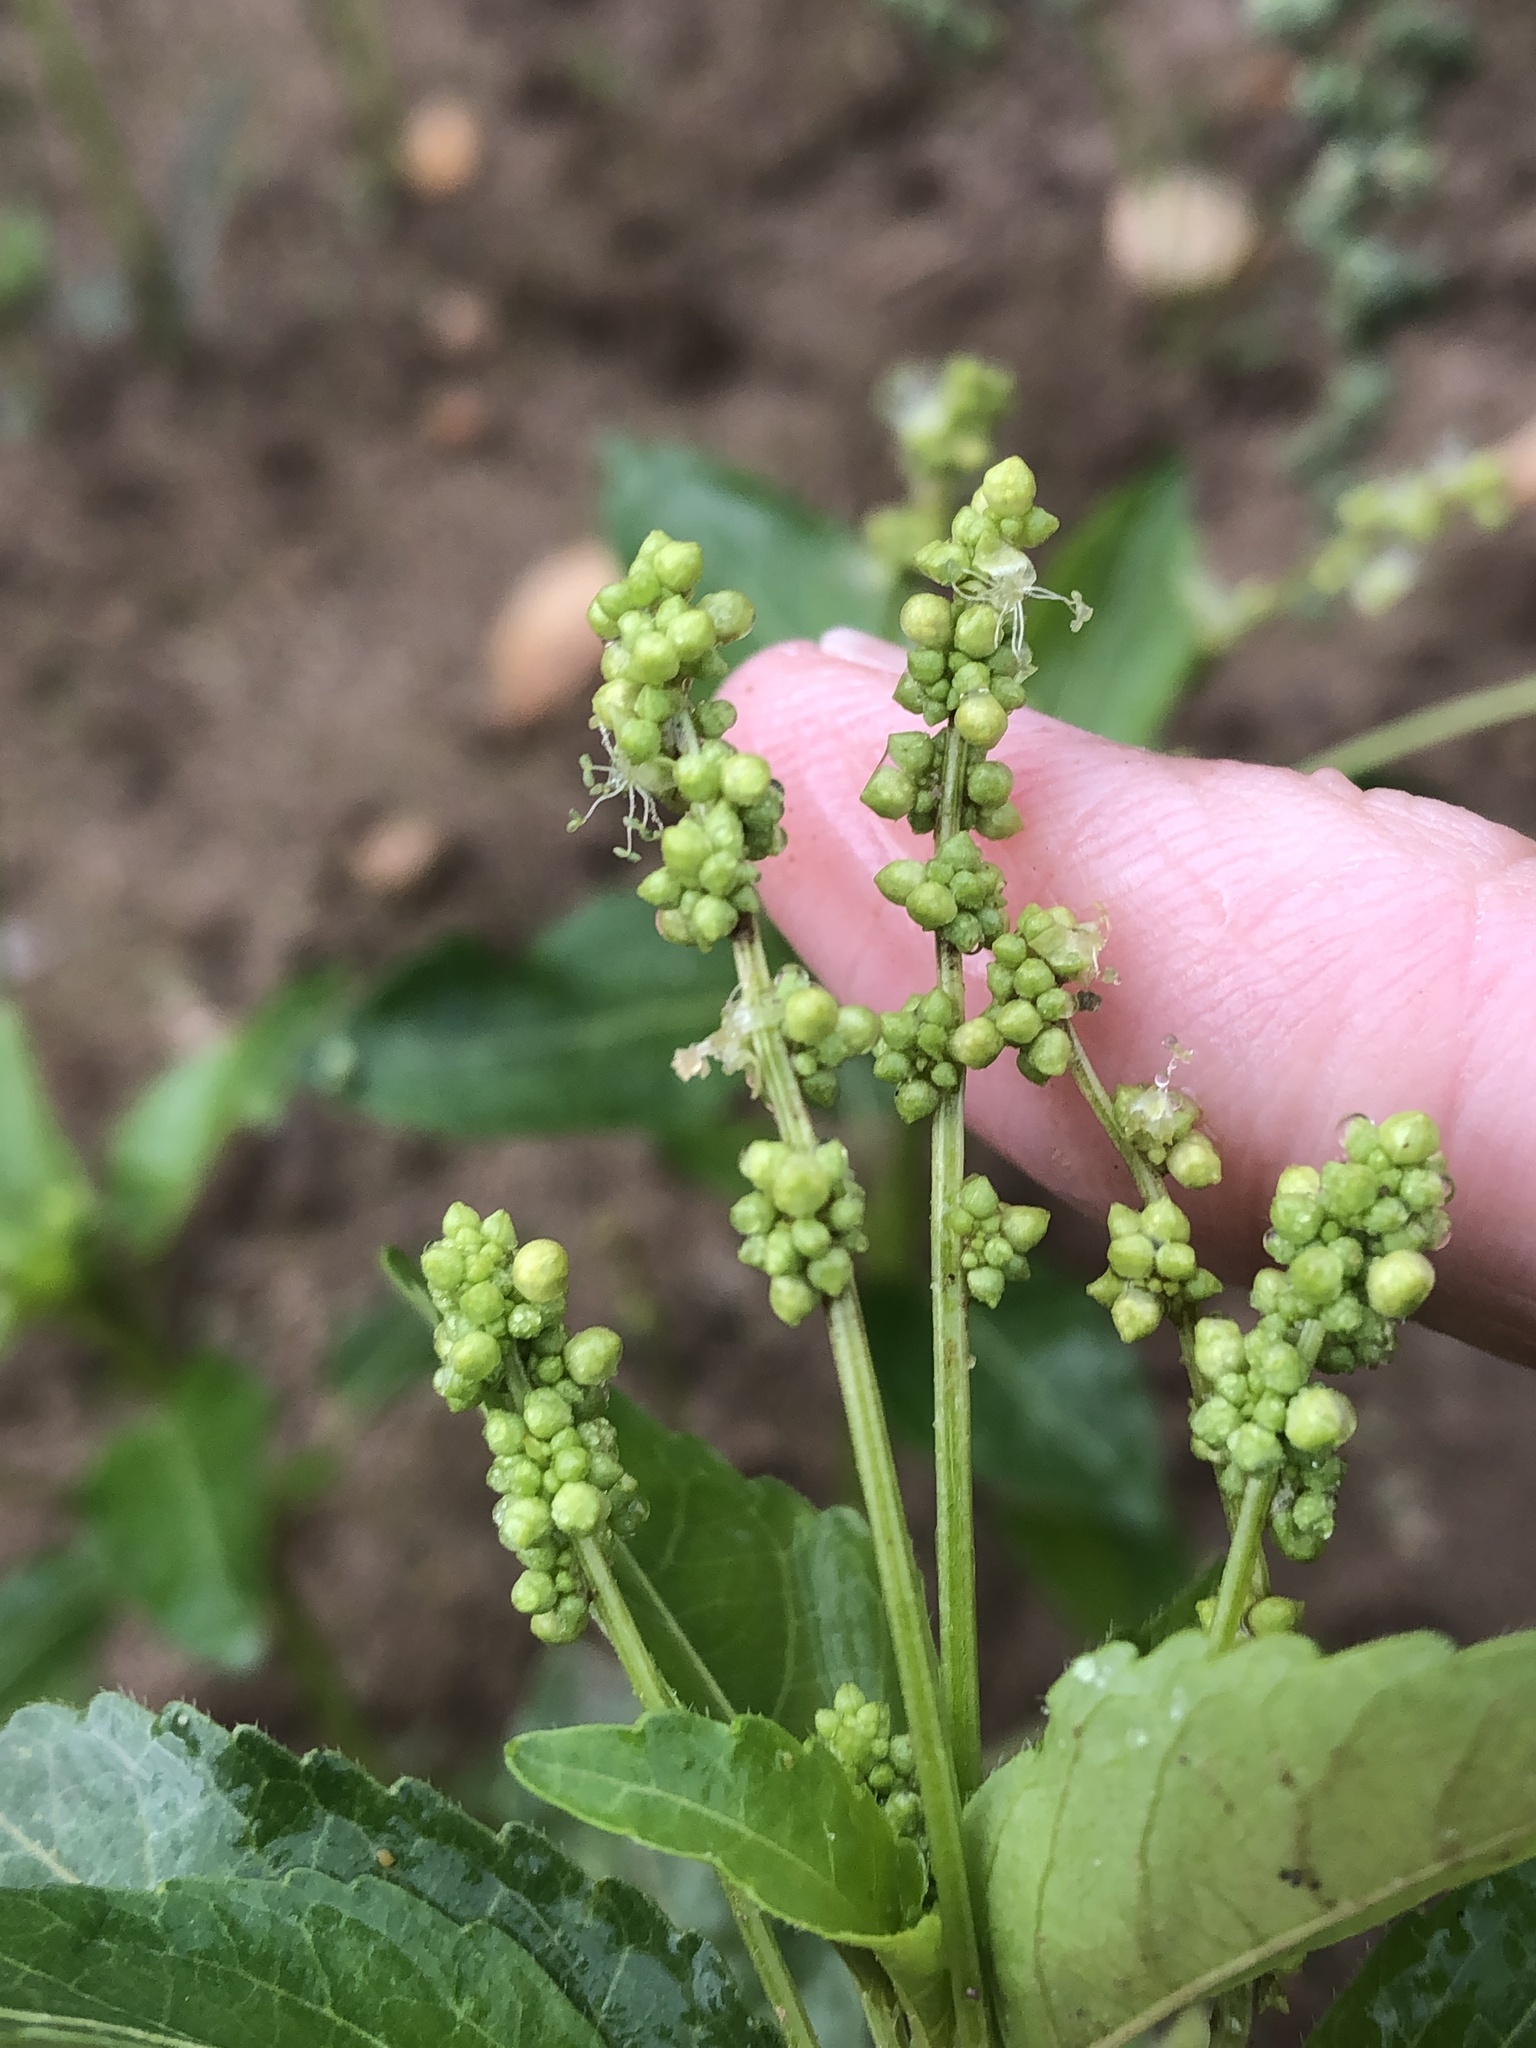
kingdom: Plantae
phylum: Tracheophyta
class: Magnoliopsida
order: Malpighiales
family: Euphorbiaceae
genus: Mercurialis
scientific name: Mercurialis annua
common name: Annual mercury
